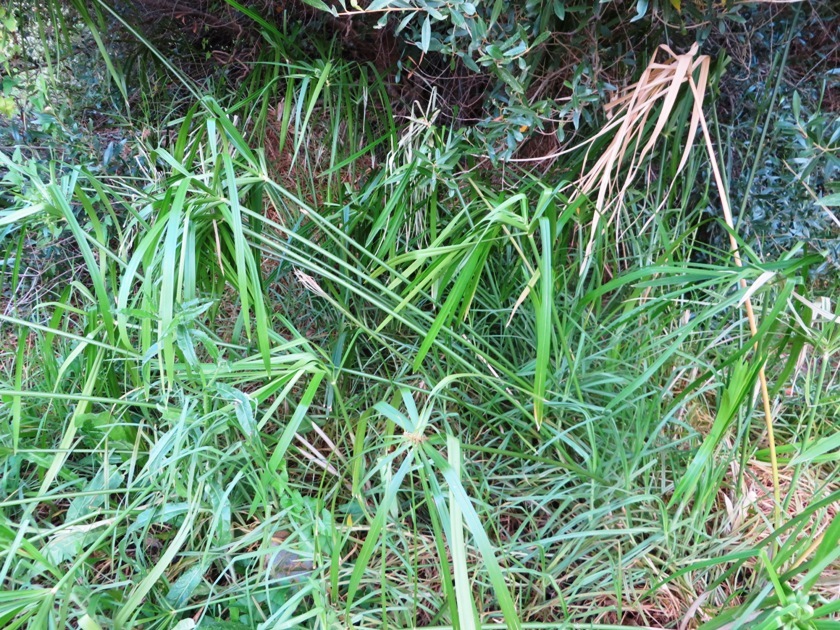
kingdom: Plantae
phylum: Tracheophyta
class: Liliopsida
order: Poales
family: Cyperaceae
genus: Cyperus
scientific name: Cyperus textilis
